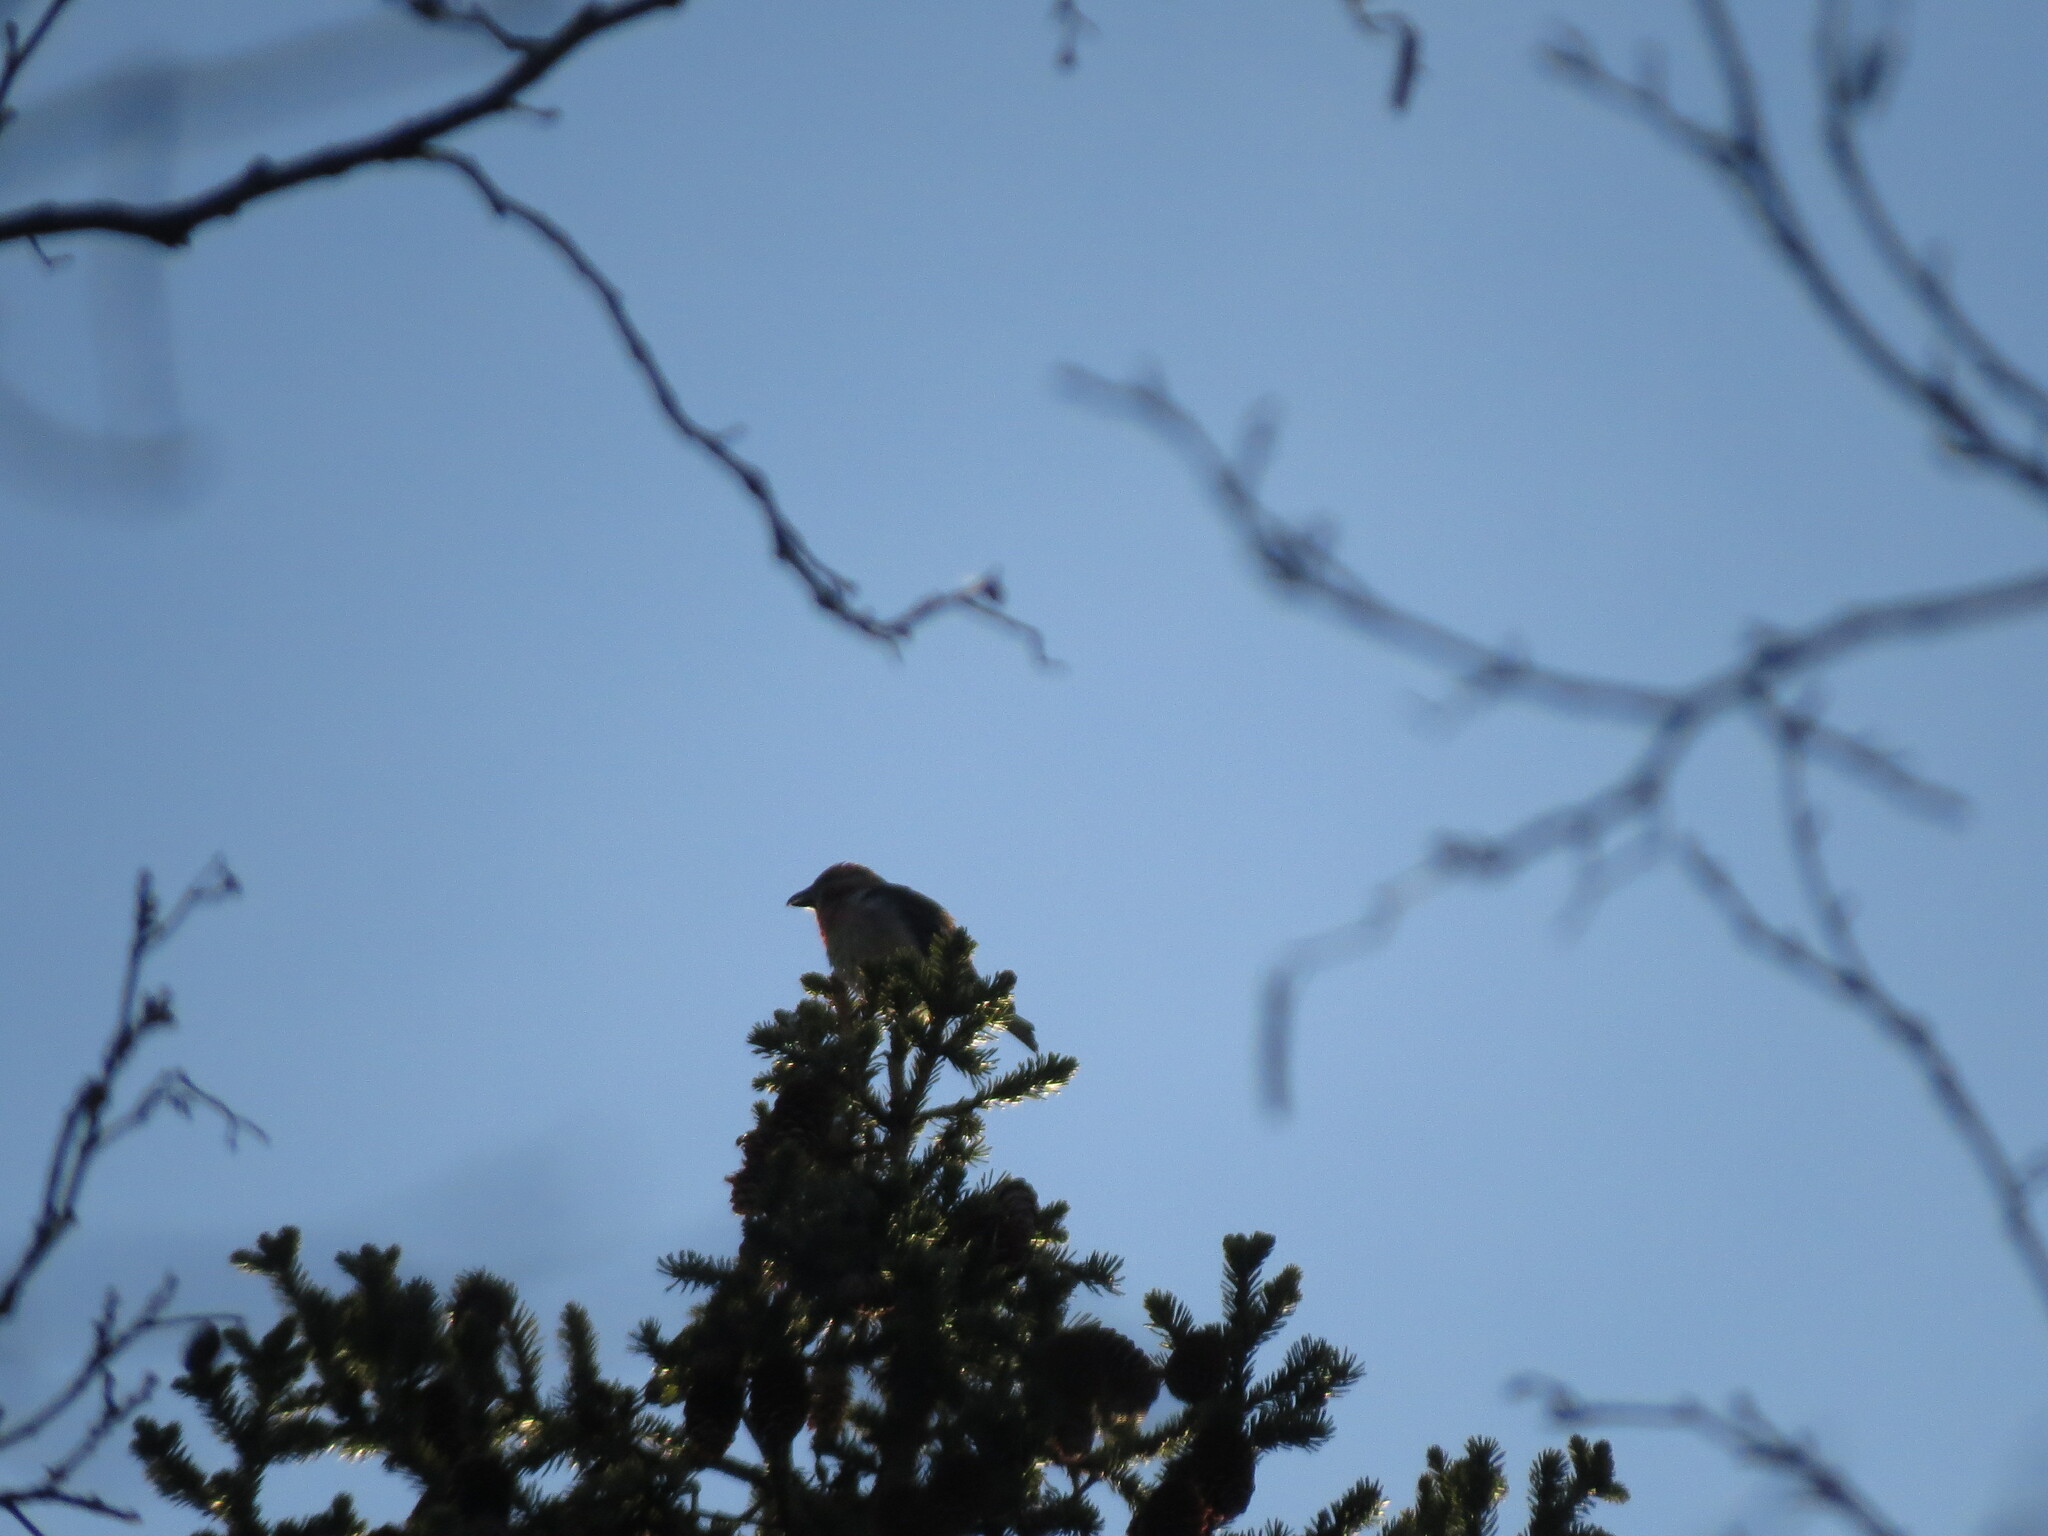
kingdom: Animalia
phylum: Chordata
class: Aves
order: Passeriformes
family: Fringillidae
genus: Loxia
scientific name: Loxia curvirostra
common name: Red crossbill
